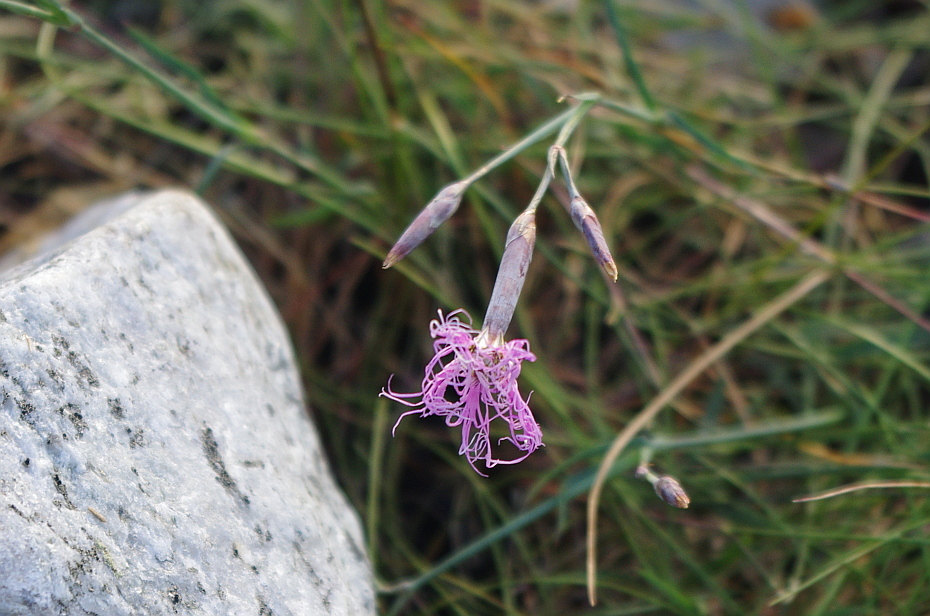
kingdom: Plantae
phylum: Tracheophyta
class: Magnoliopsida
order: Caryophyllales
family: Caryophyllaceae
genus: Dianthus
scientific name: Dianthus superbus
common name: Fringed pink
